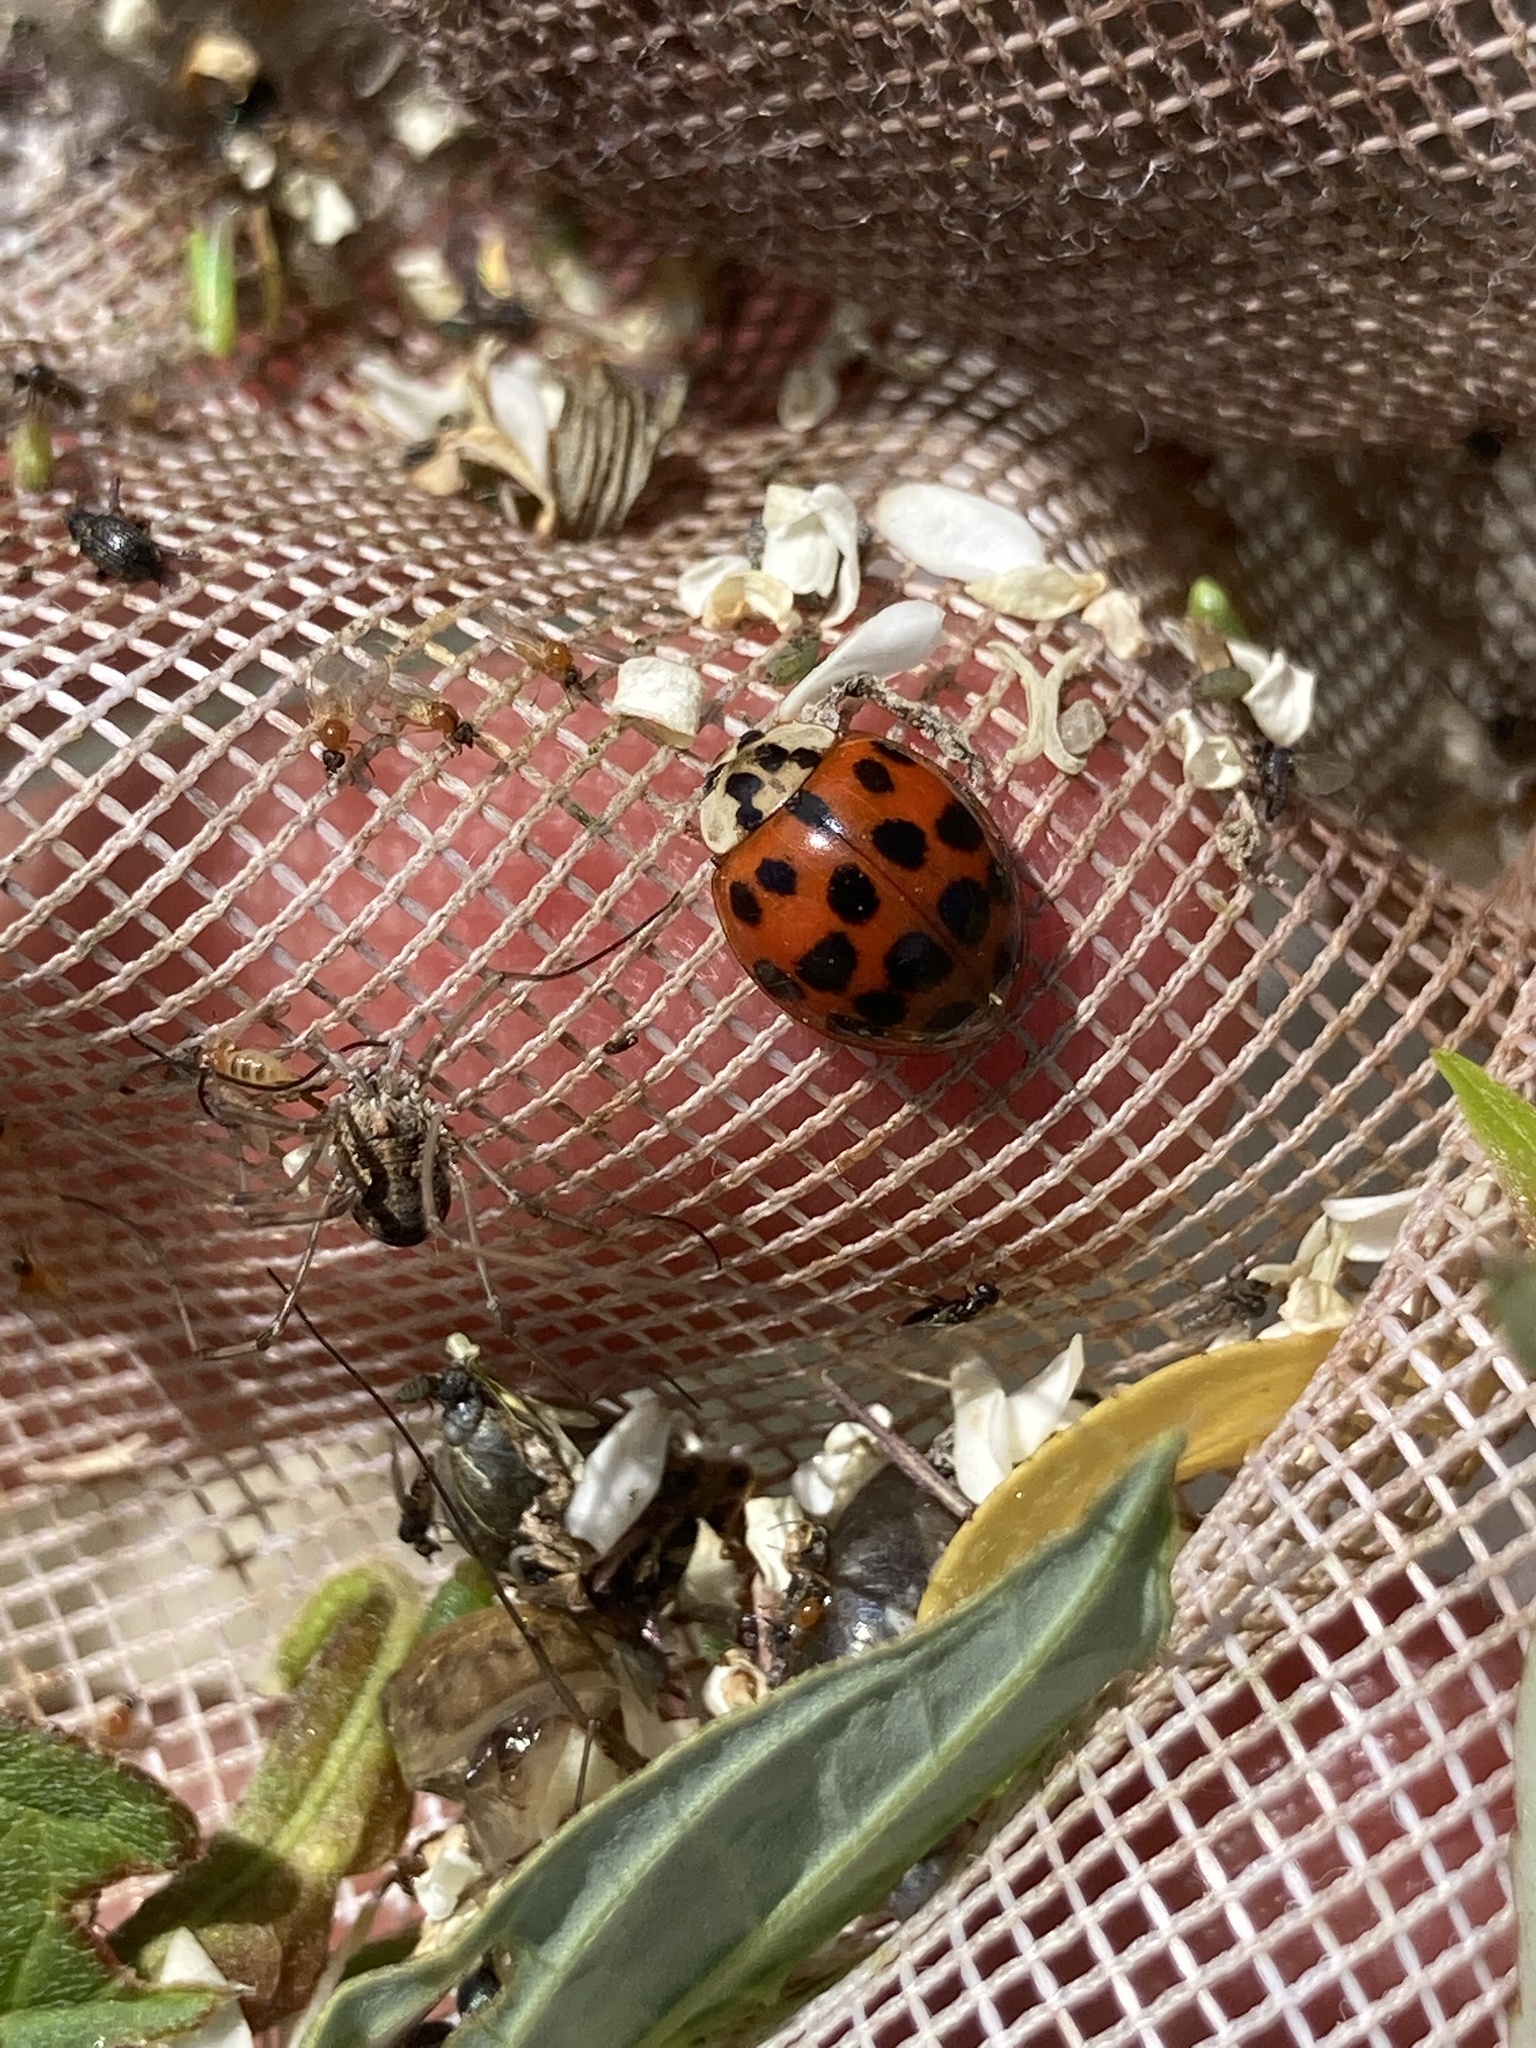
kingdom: Animalia
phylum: Arthropoda
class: Insecta
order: Coleoptera
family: Coccinellidae
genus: Harmonia
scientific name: Harmonia axyridis
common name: Harlequin ladybird
